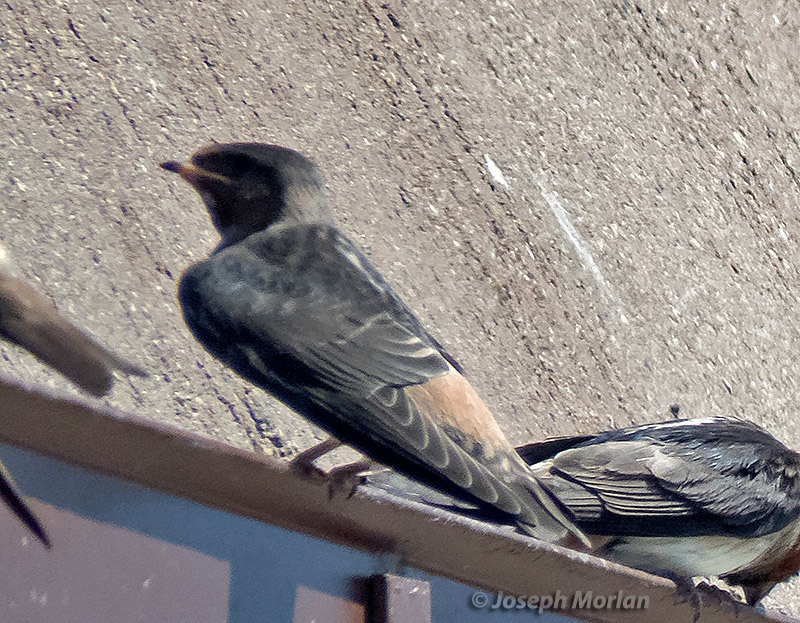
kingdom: Animalia
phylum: Chordata
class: Aves
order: Passeriformes
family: Hirundinidae
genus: Petrochelidon
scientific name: Petrochelidon pyrrhonota
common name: American cliff swallow
